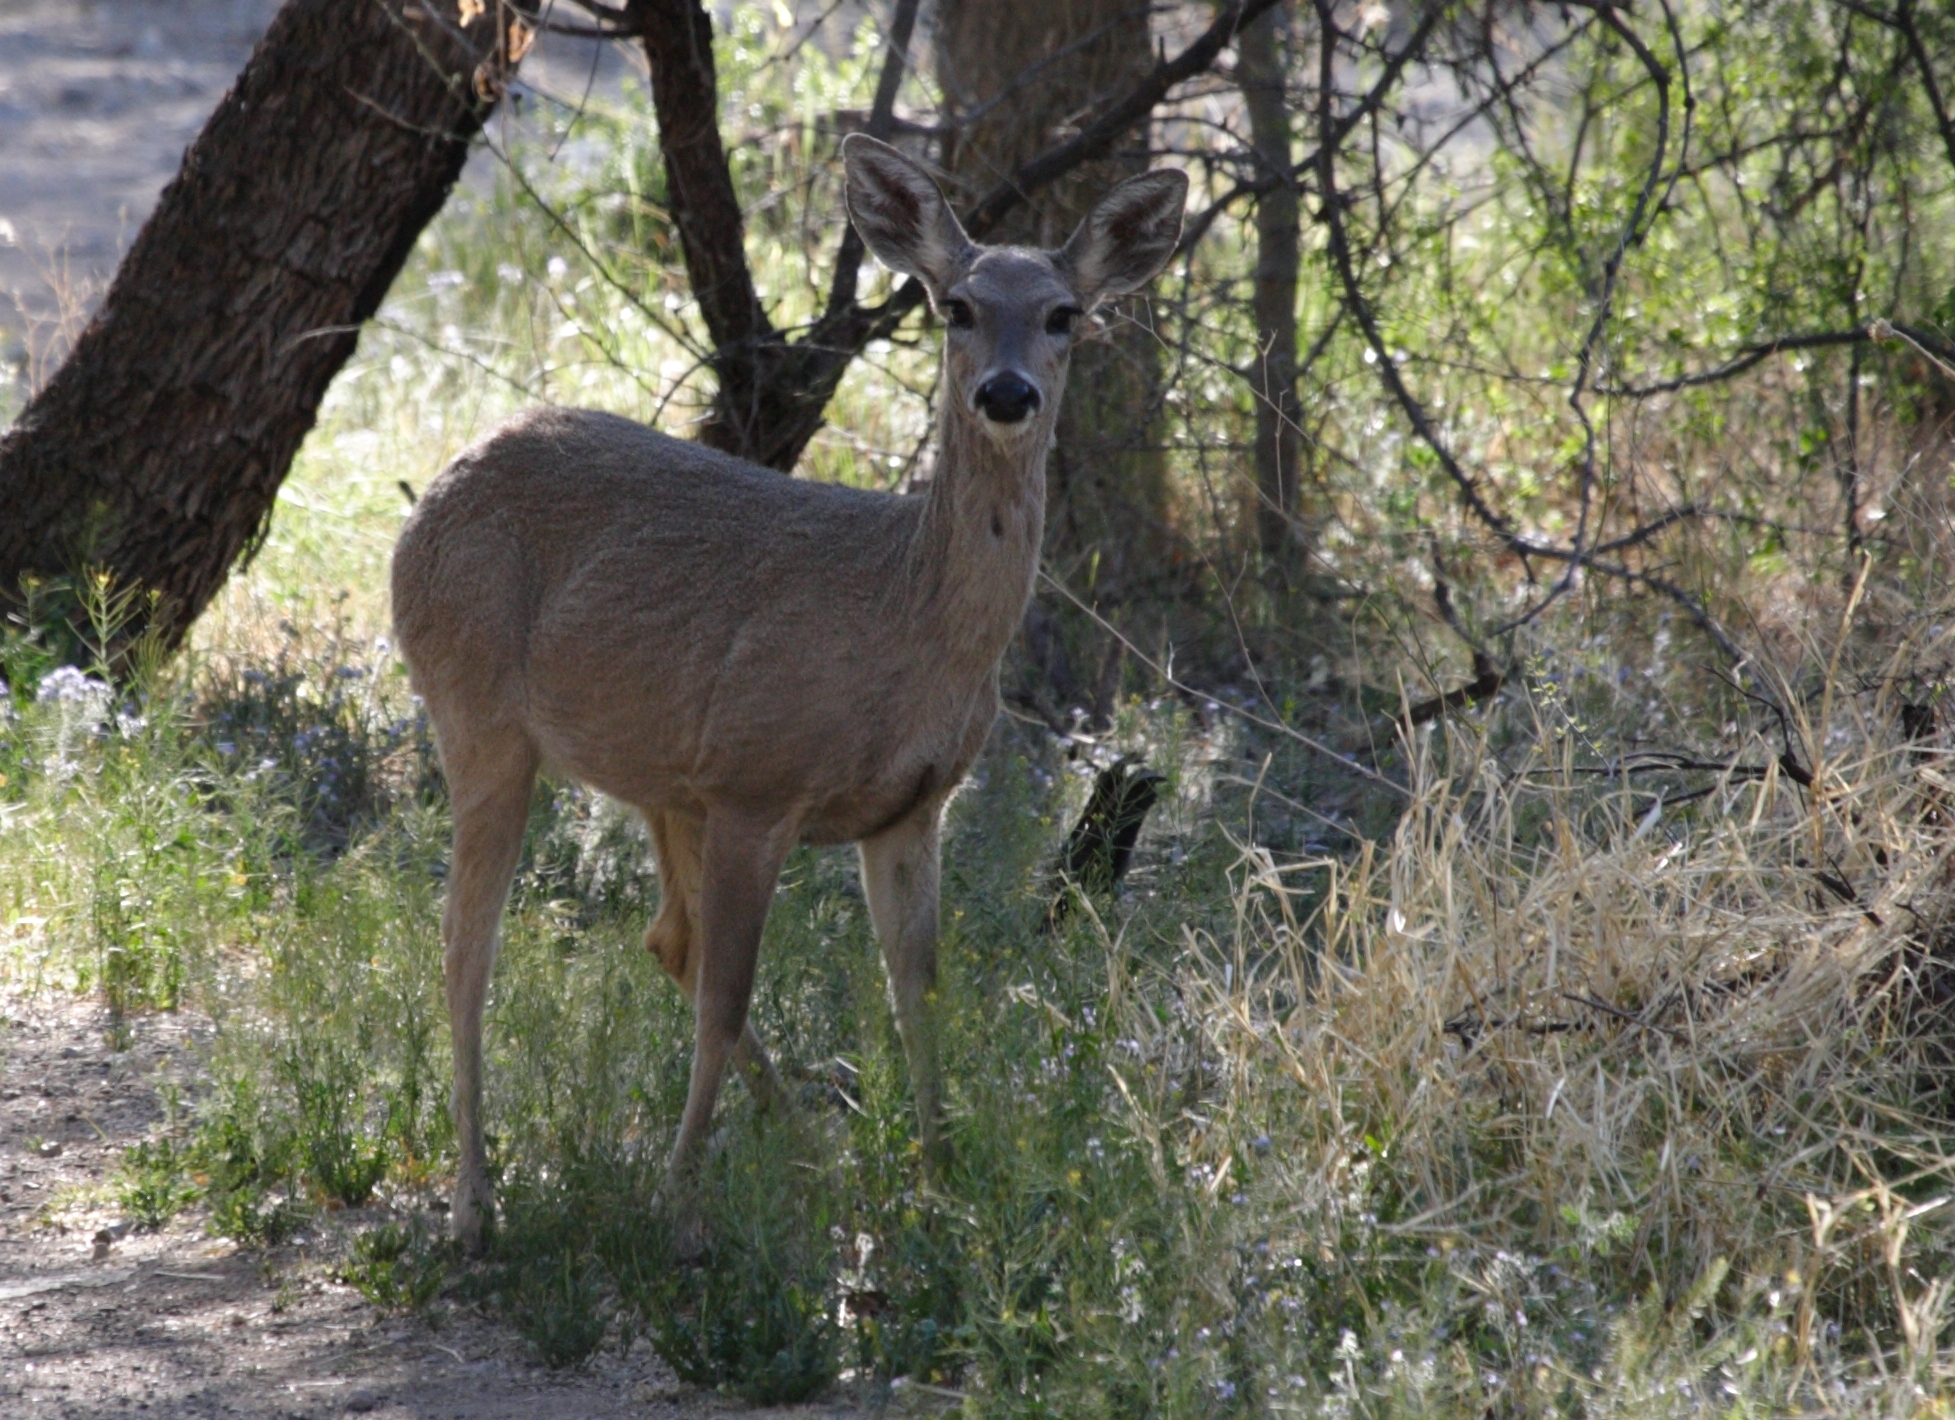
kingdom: Animalia
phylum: Chordata
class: Mammalia
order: Artiodactyla
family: Cervidae
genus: Odocoileus
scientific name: Odocoileus virginianus
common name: White-tailed deer
